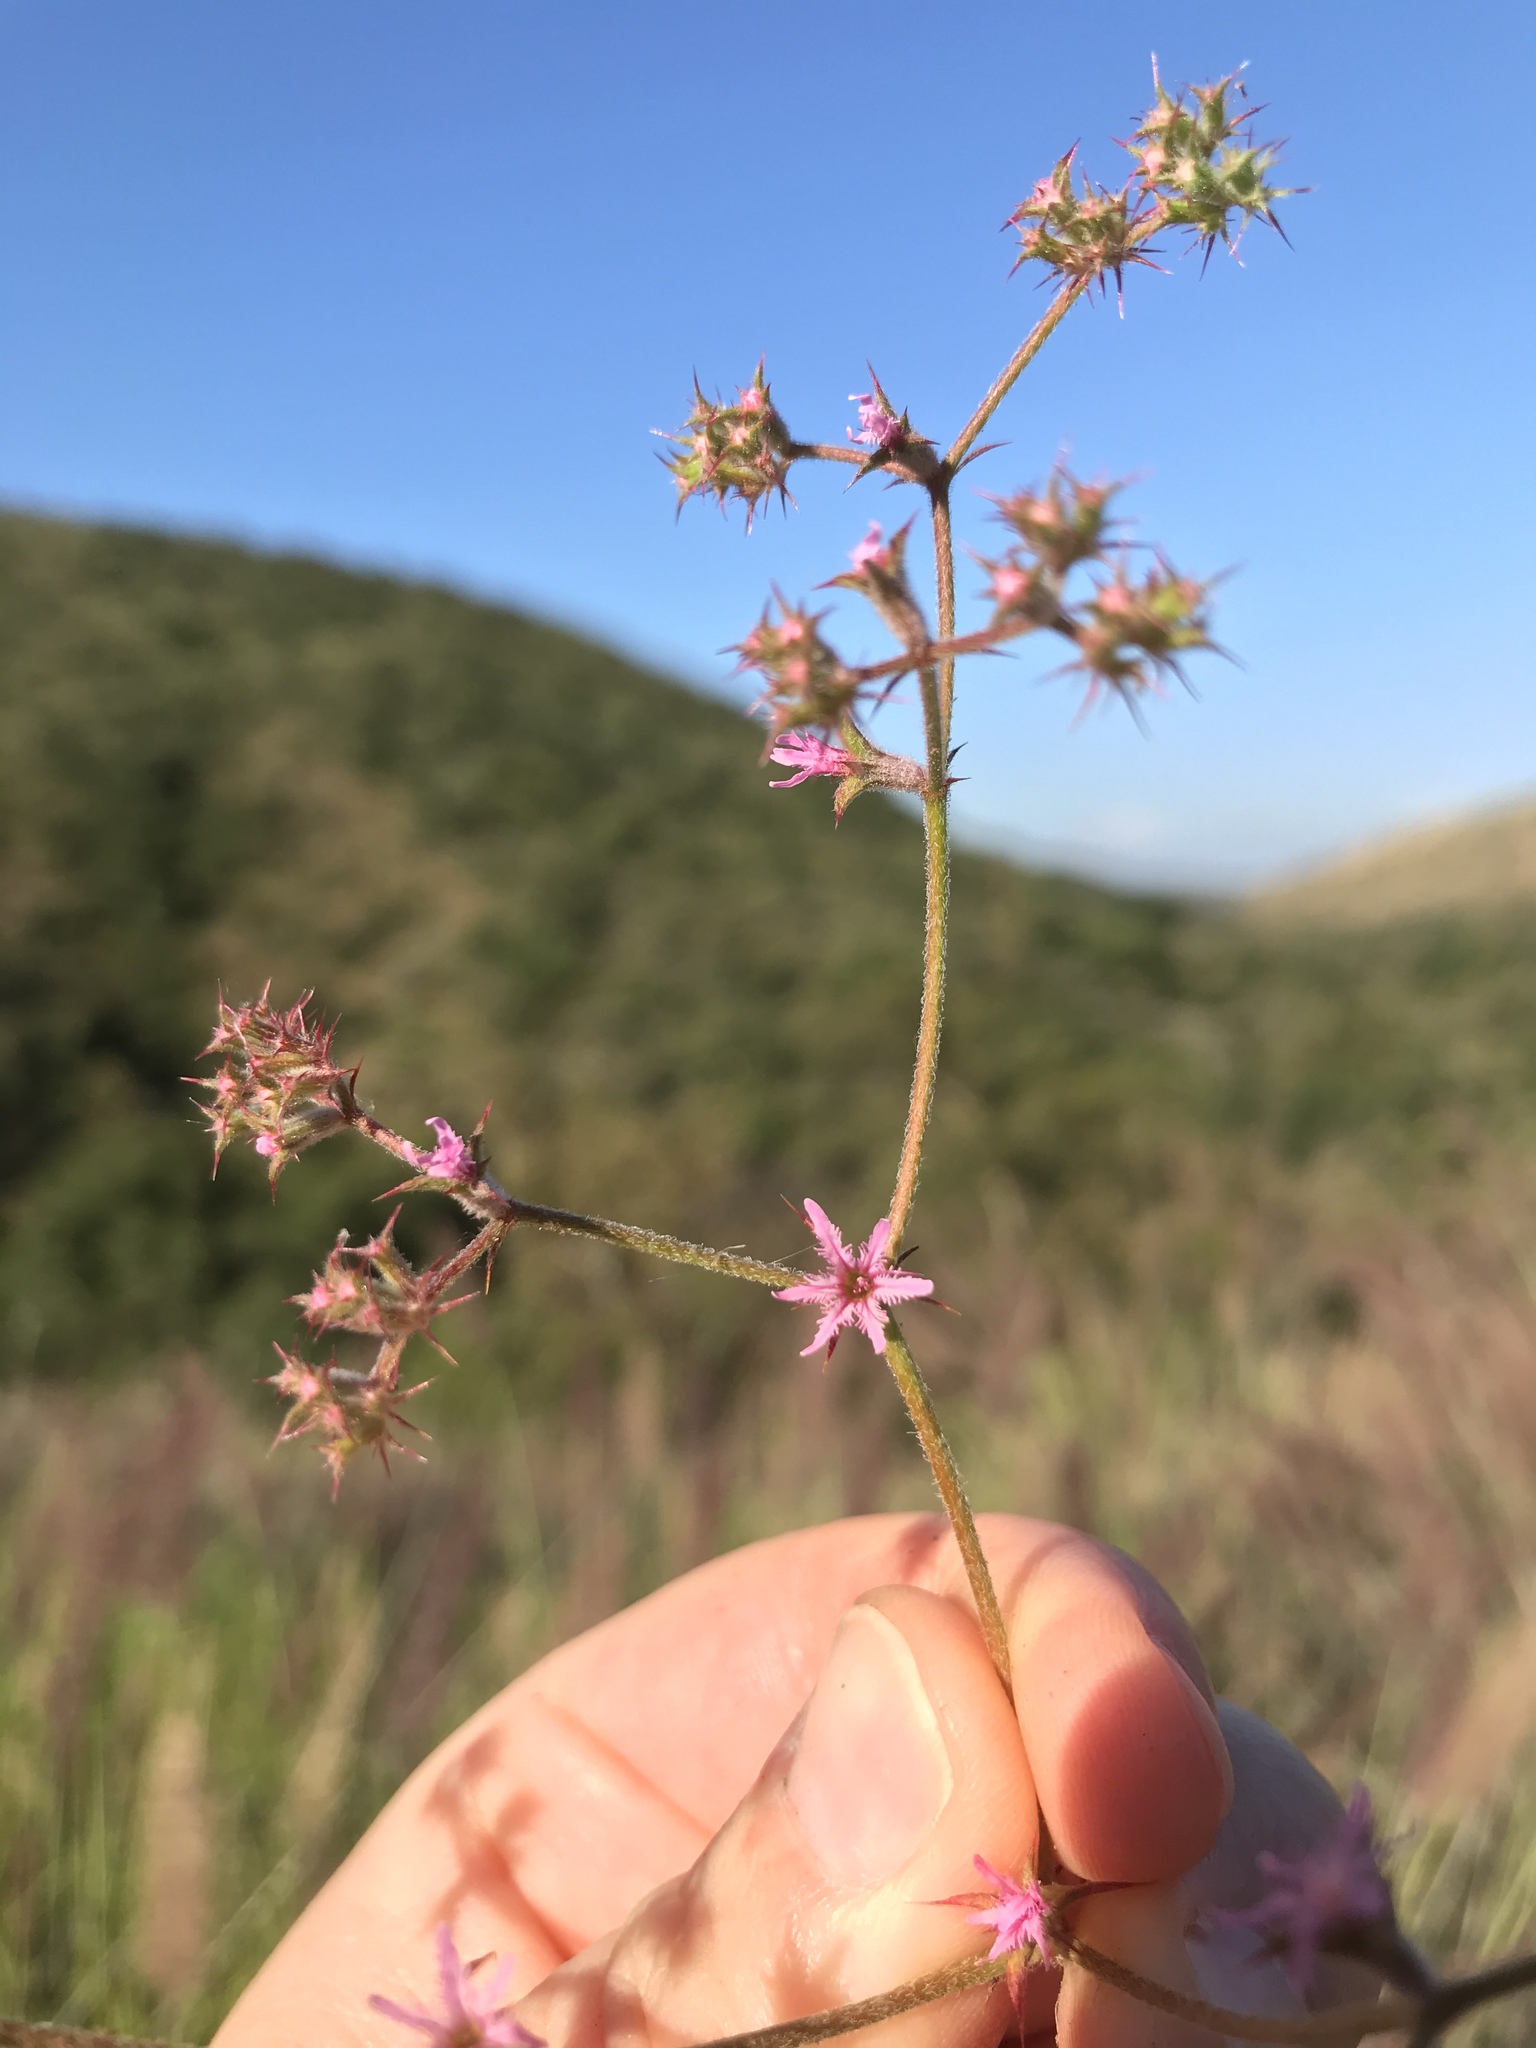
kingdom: Plantae
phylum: Tracheophyta
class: Magnoliopsida
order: Caryophyllales
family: Polygonaceae
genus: Chorizanthe
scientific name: Chorizanthe fimbriata
